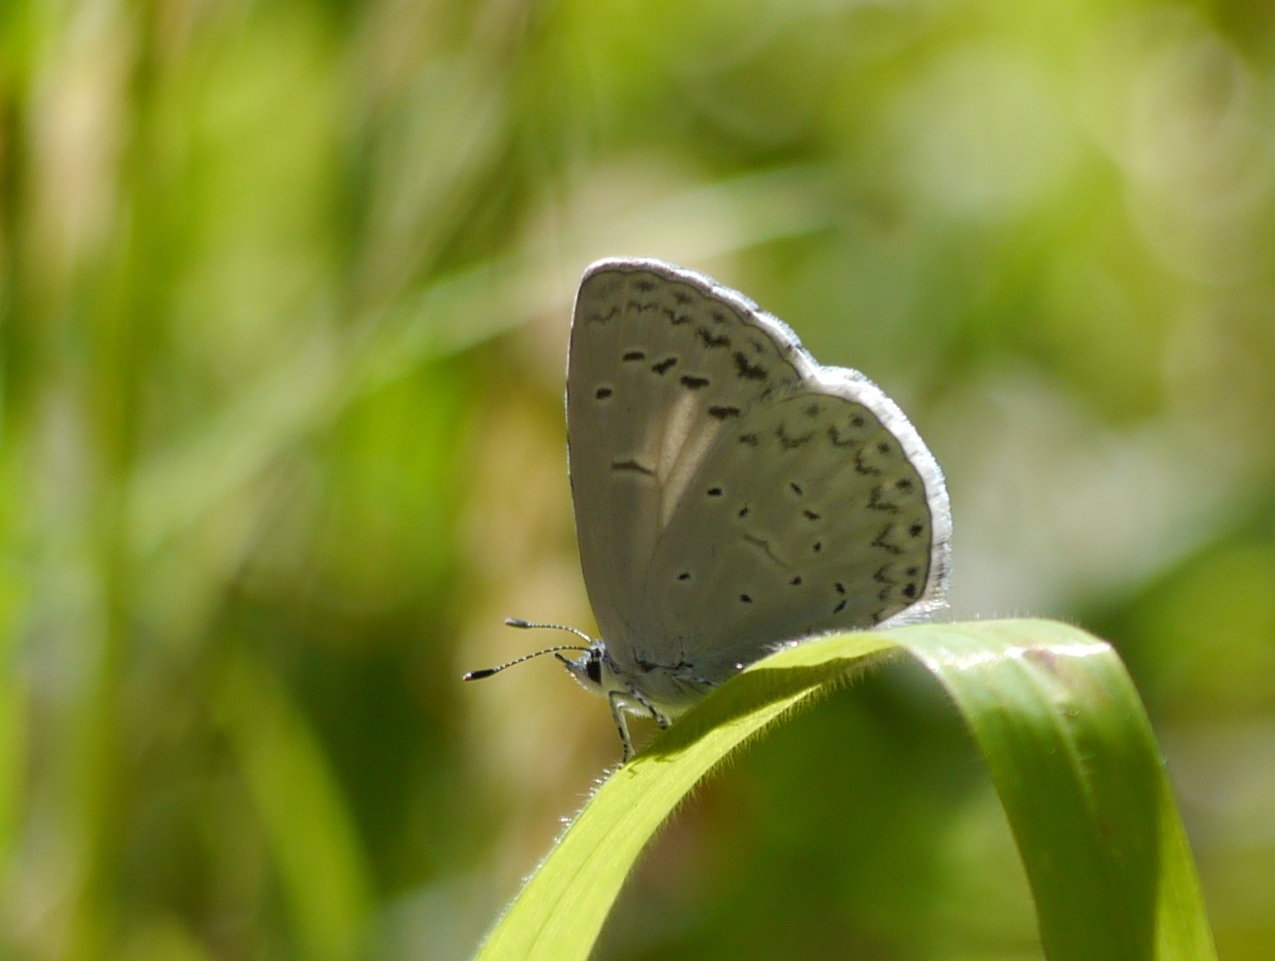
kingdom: Animalia
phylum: Arthropoda
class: Insecta
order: Lepidoptera
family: Lycaenidae
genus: Celastrina
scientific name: Celastrina ladon
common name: Spring azure
